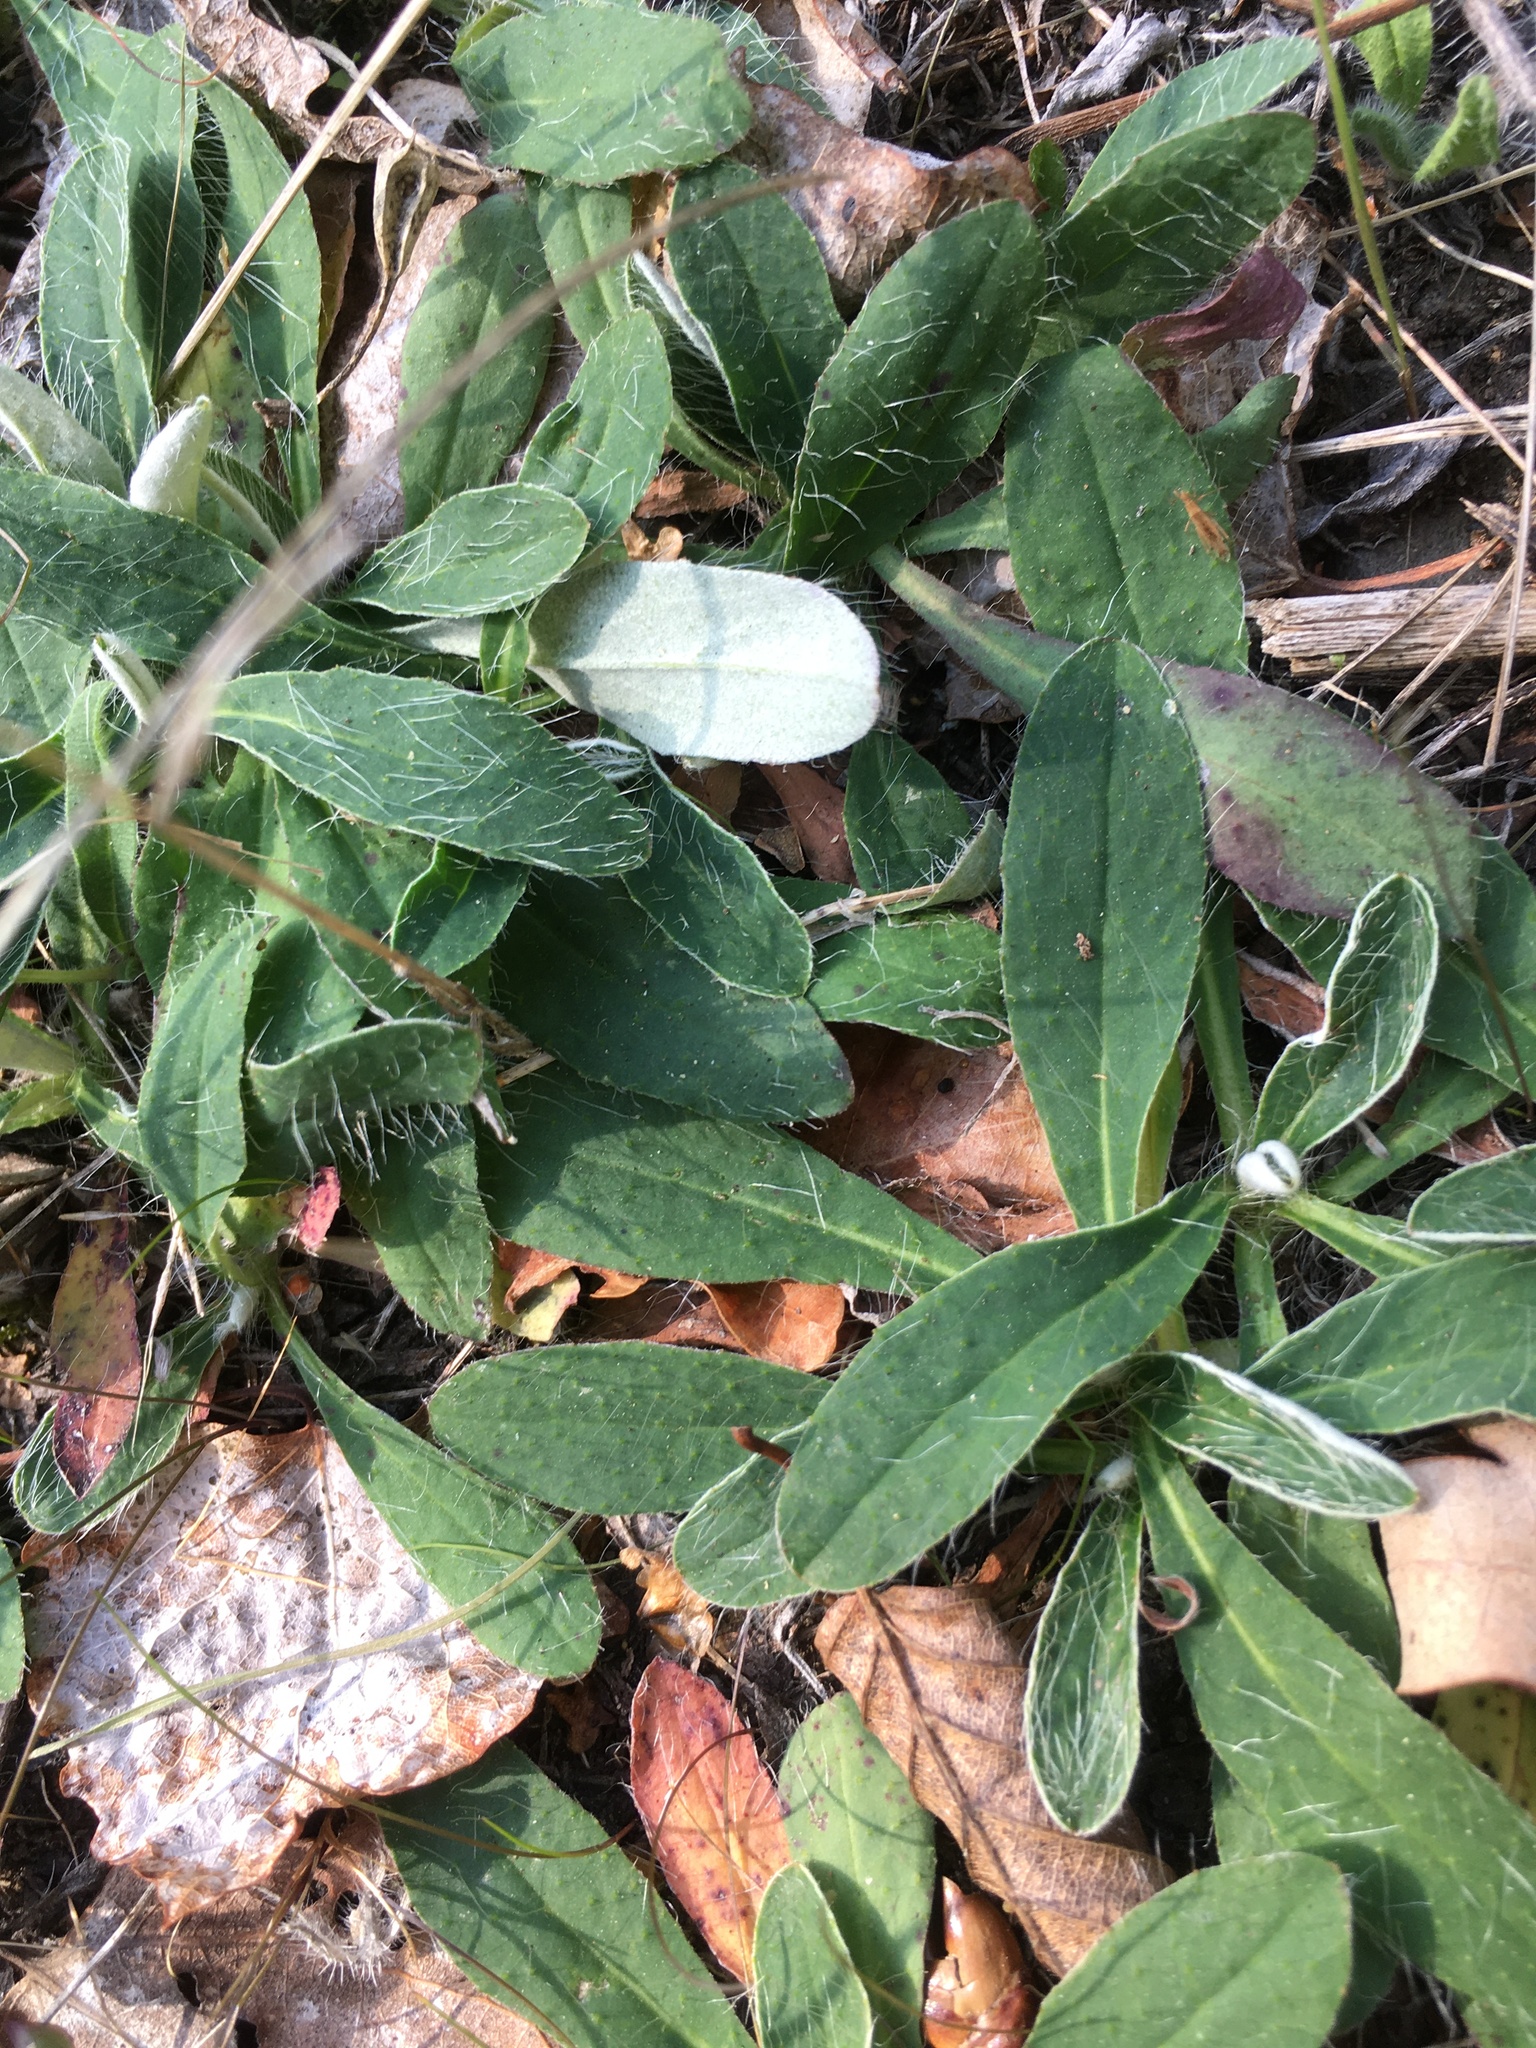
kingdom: Plantae
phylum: Tracheophyta
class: Magnoliopsida
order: Asterales
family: Asteraceae
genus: Pilosella
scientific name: Pilosella officinarum
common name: Mouse-ear hawkweed
